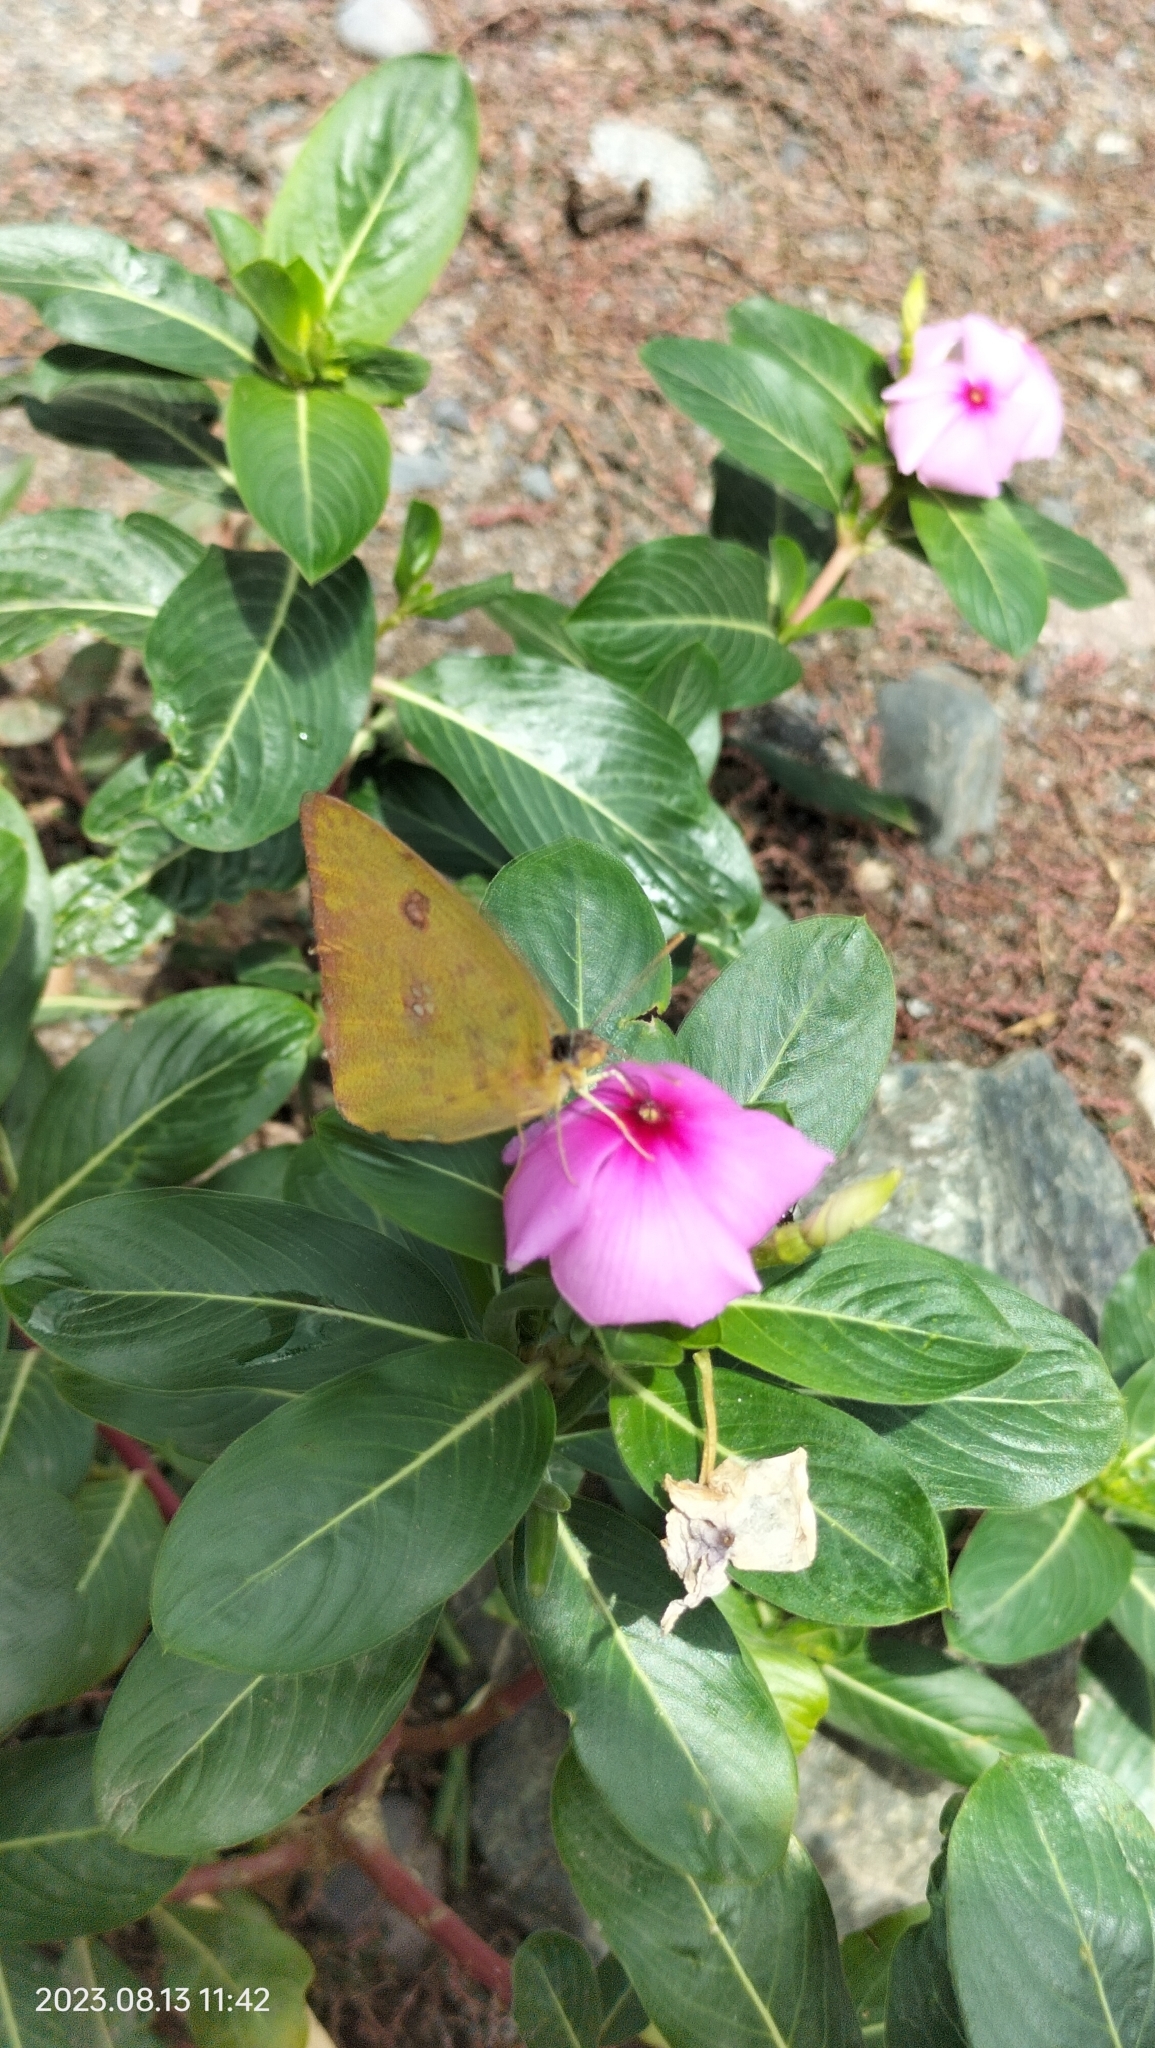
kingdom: Plantae
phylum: Tracheophyta
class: Magnoliopsida
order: Gentianales
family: Apocynaceae
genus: Catharanthus
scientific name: Catharanthus roseus
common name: Madagascar periwinkle
